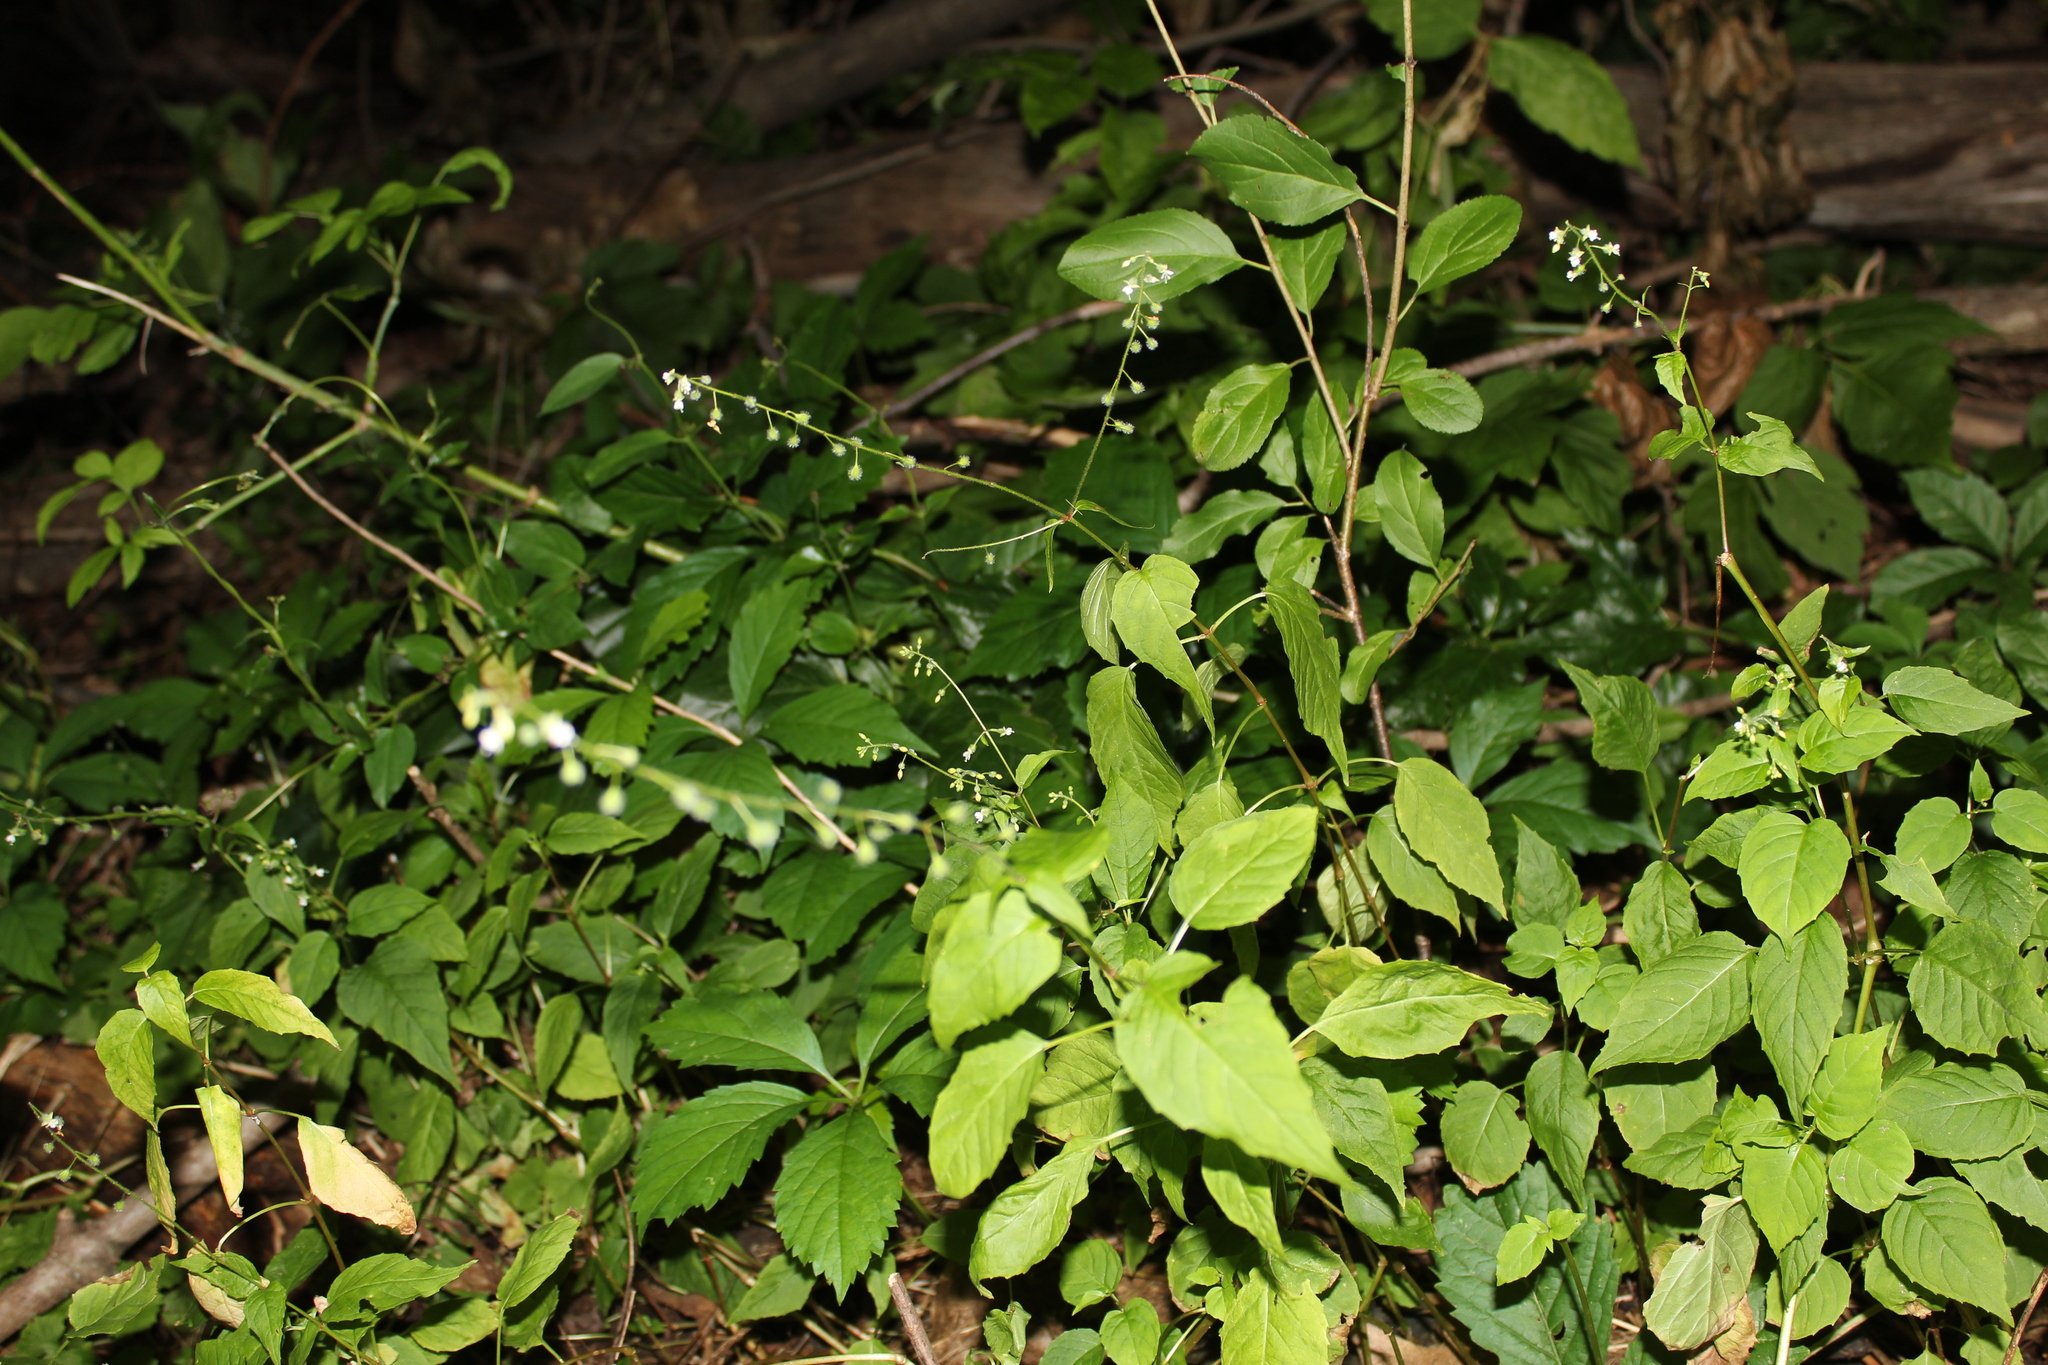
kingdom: Plantae
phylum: Tracheophyta
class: Magnoliopsida
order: Myrtales
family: Onagraceae
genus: Circaea
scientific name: Circaea canadensis
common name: Broad-leaved enchanter's nightshade
